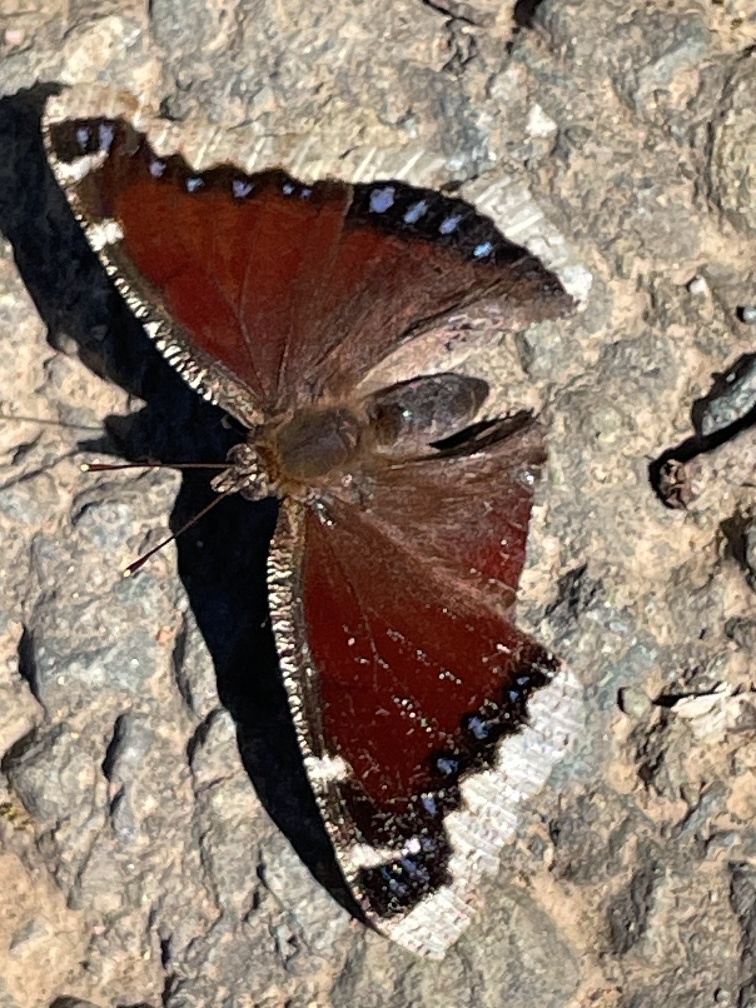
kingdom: Animalia
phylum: Arthropoda
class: Insecta
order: Lepidoptera
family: Nymphalidae
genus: Nymphalis
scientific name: Nymphalis antiopa
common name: Camberwell beauty
